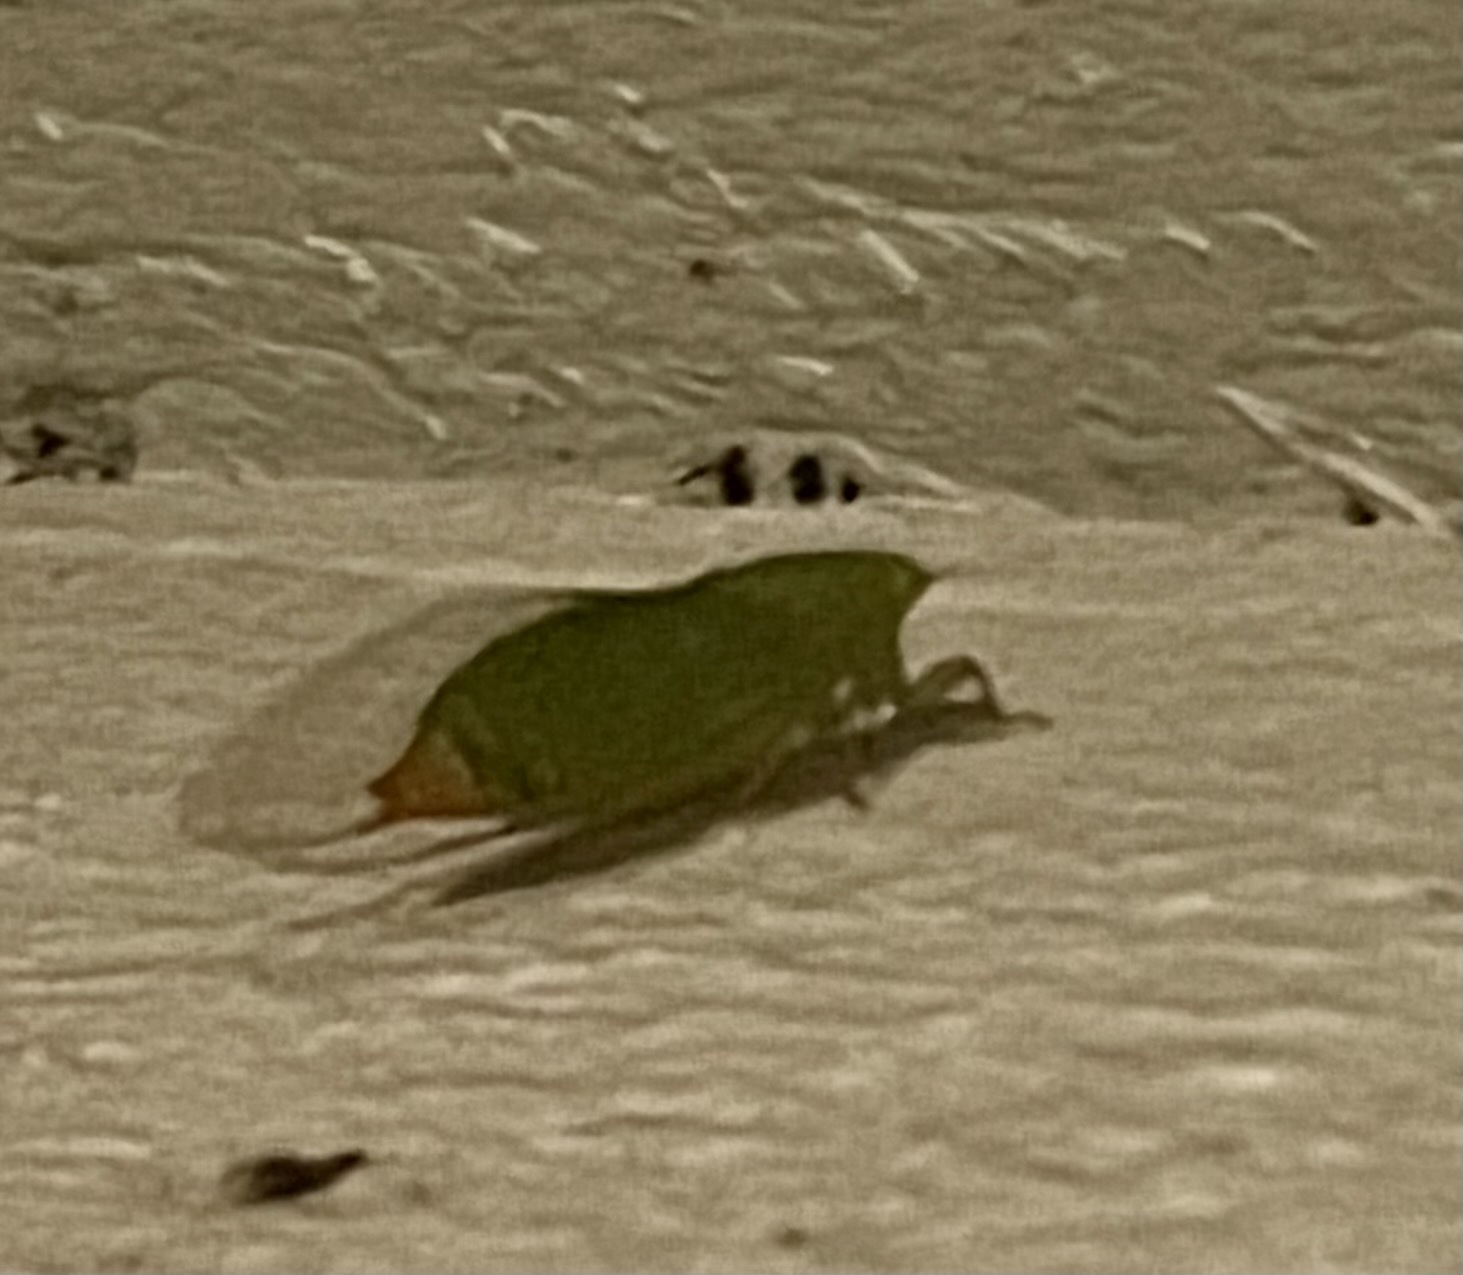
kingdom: Animalia
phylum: Arthropoda
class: Insecta
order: Hemiptera
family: Cicadidae
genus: Gymnotympana
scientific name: Gymnotympana varicolor
